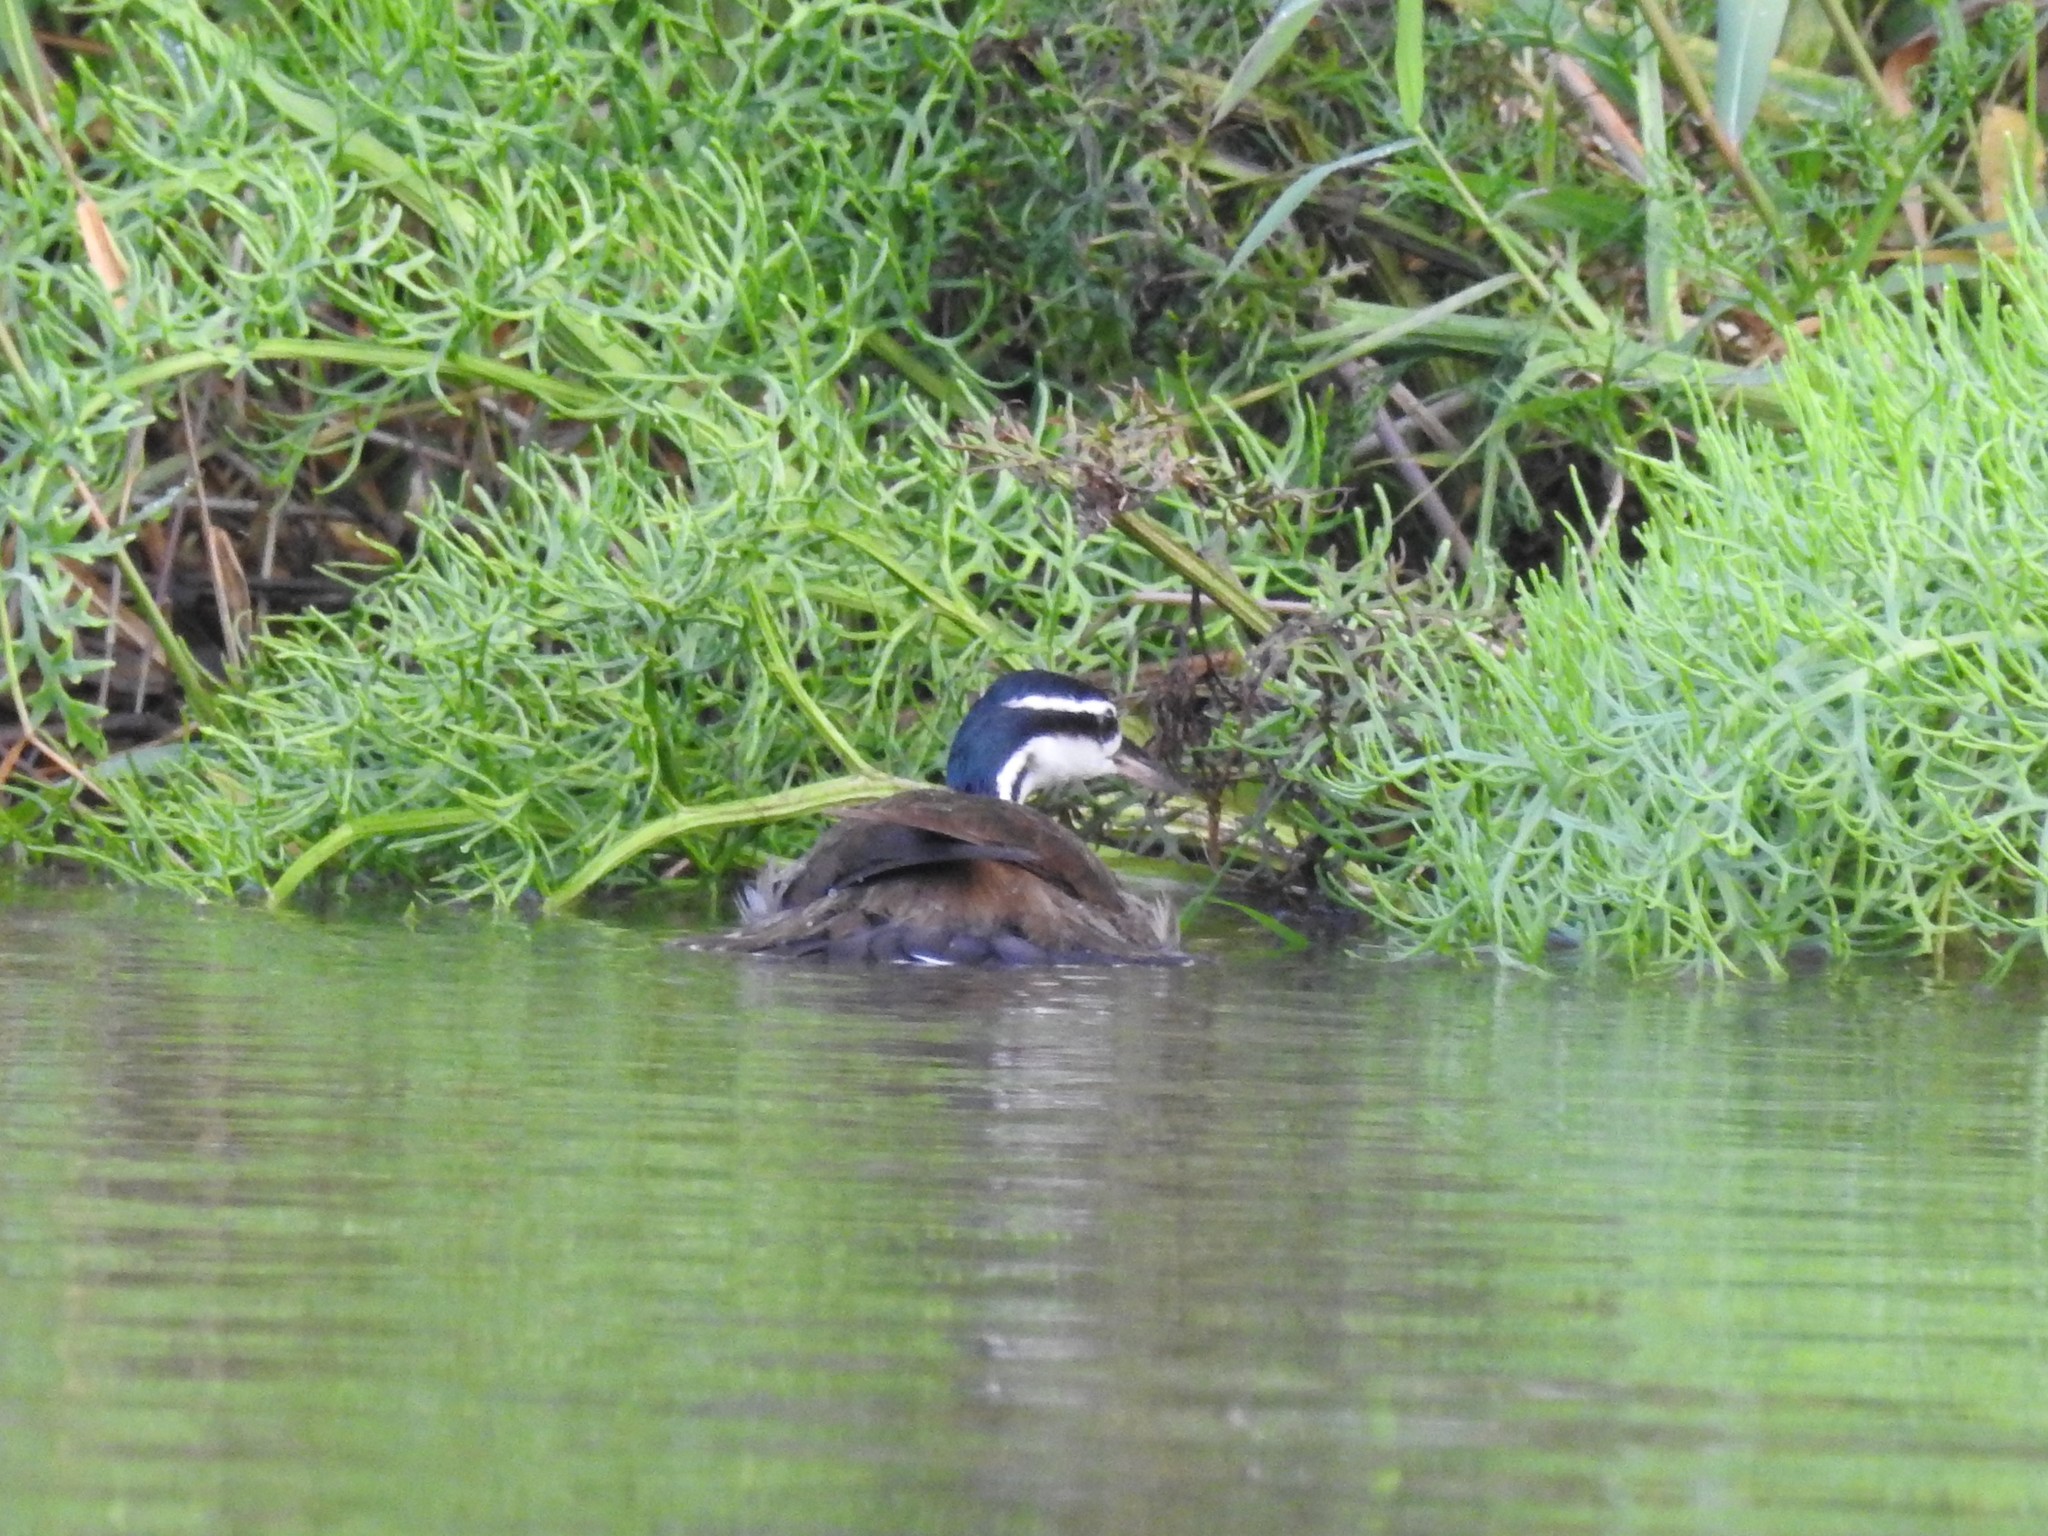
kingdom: Animalia
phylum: Chordata
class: Aves
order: Gruiformes
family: Heliornithidae
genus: Heliornis
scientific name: Heliornis fulica
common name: Sungrebe
